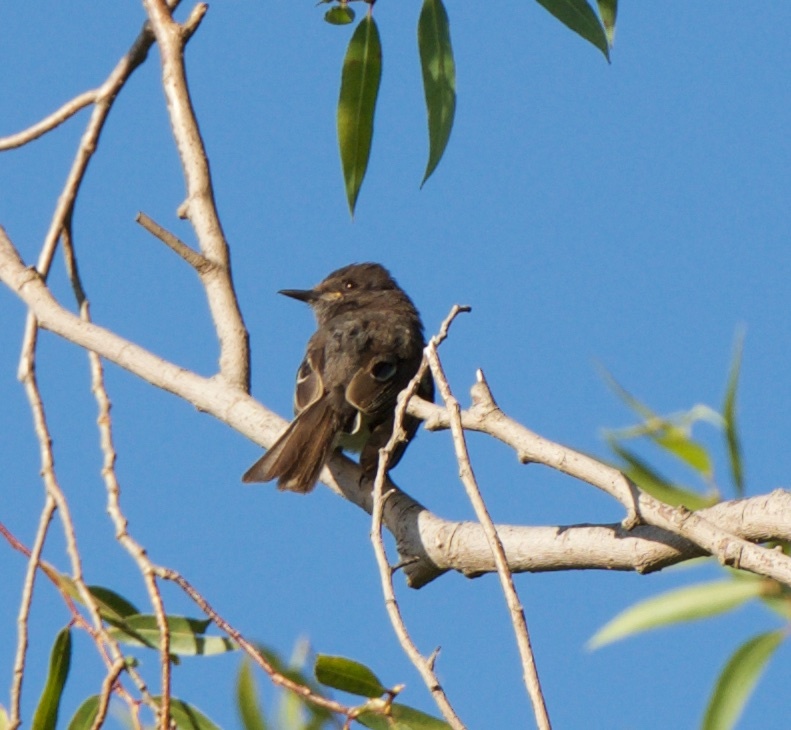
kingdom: Animalia
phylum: Chordata
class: Aves
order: Passeriformes
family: Tyrannidae
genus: Sayornis
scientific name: Sayornis nigricans
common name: Black phoebe
